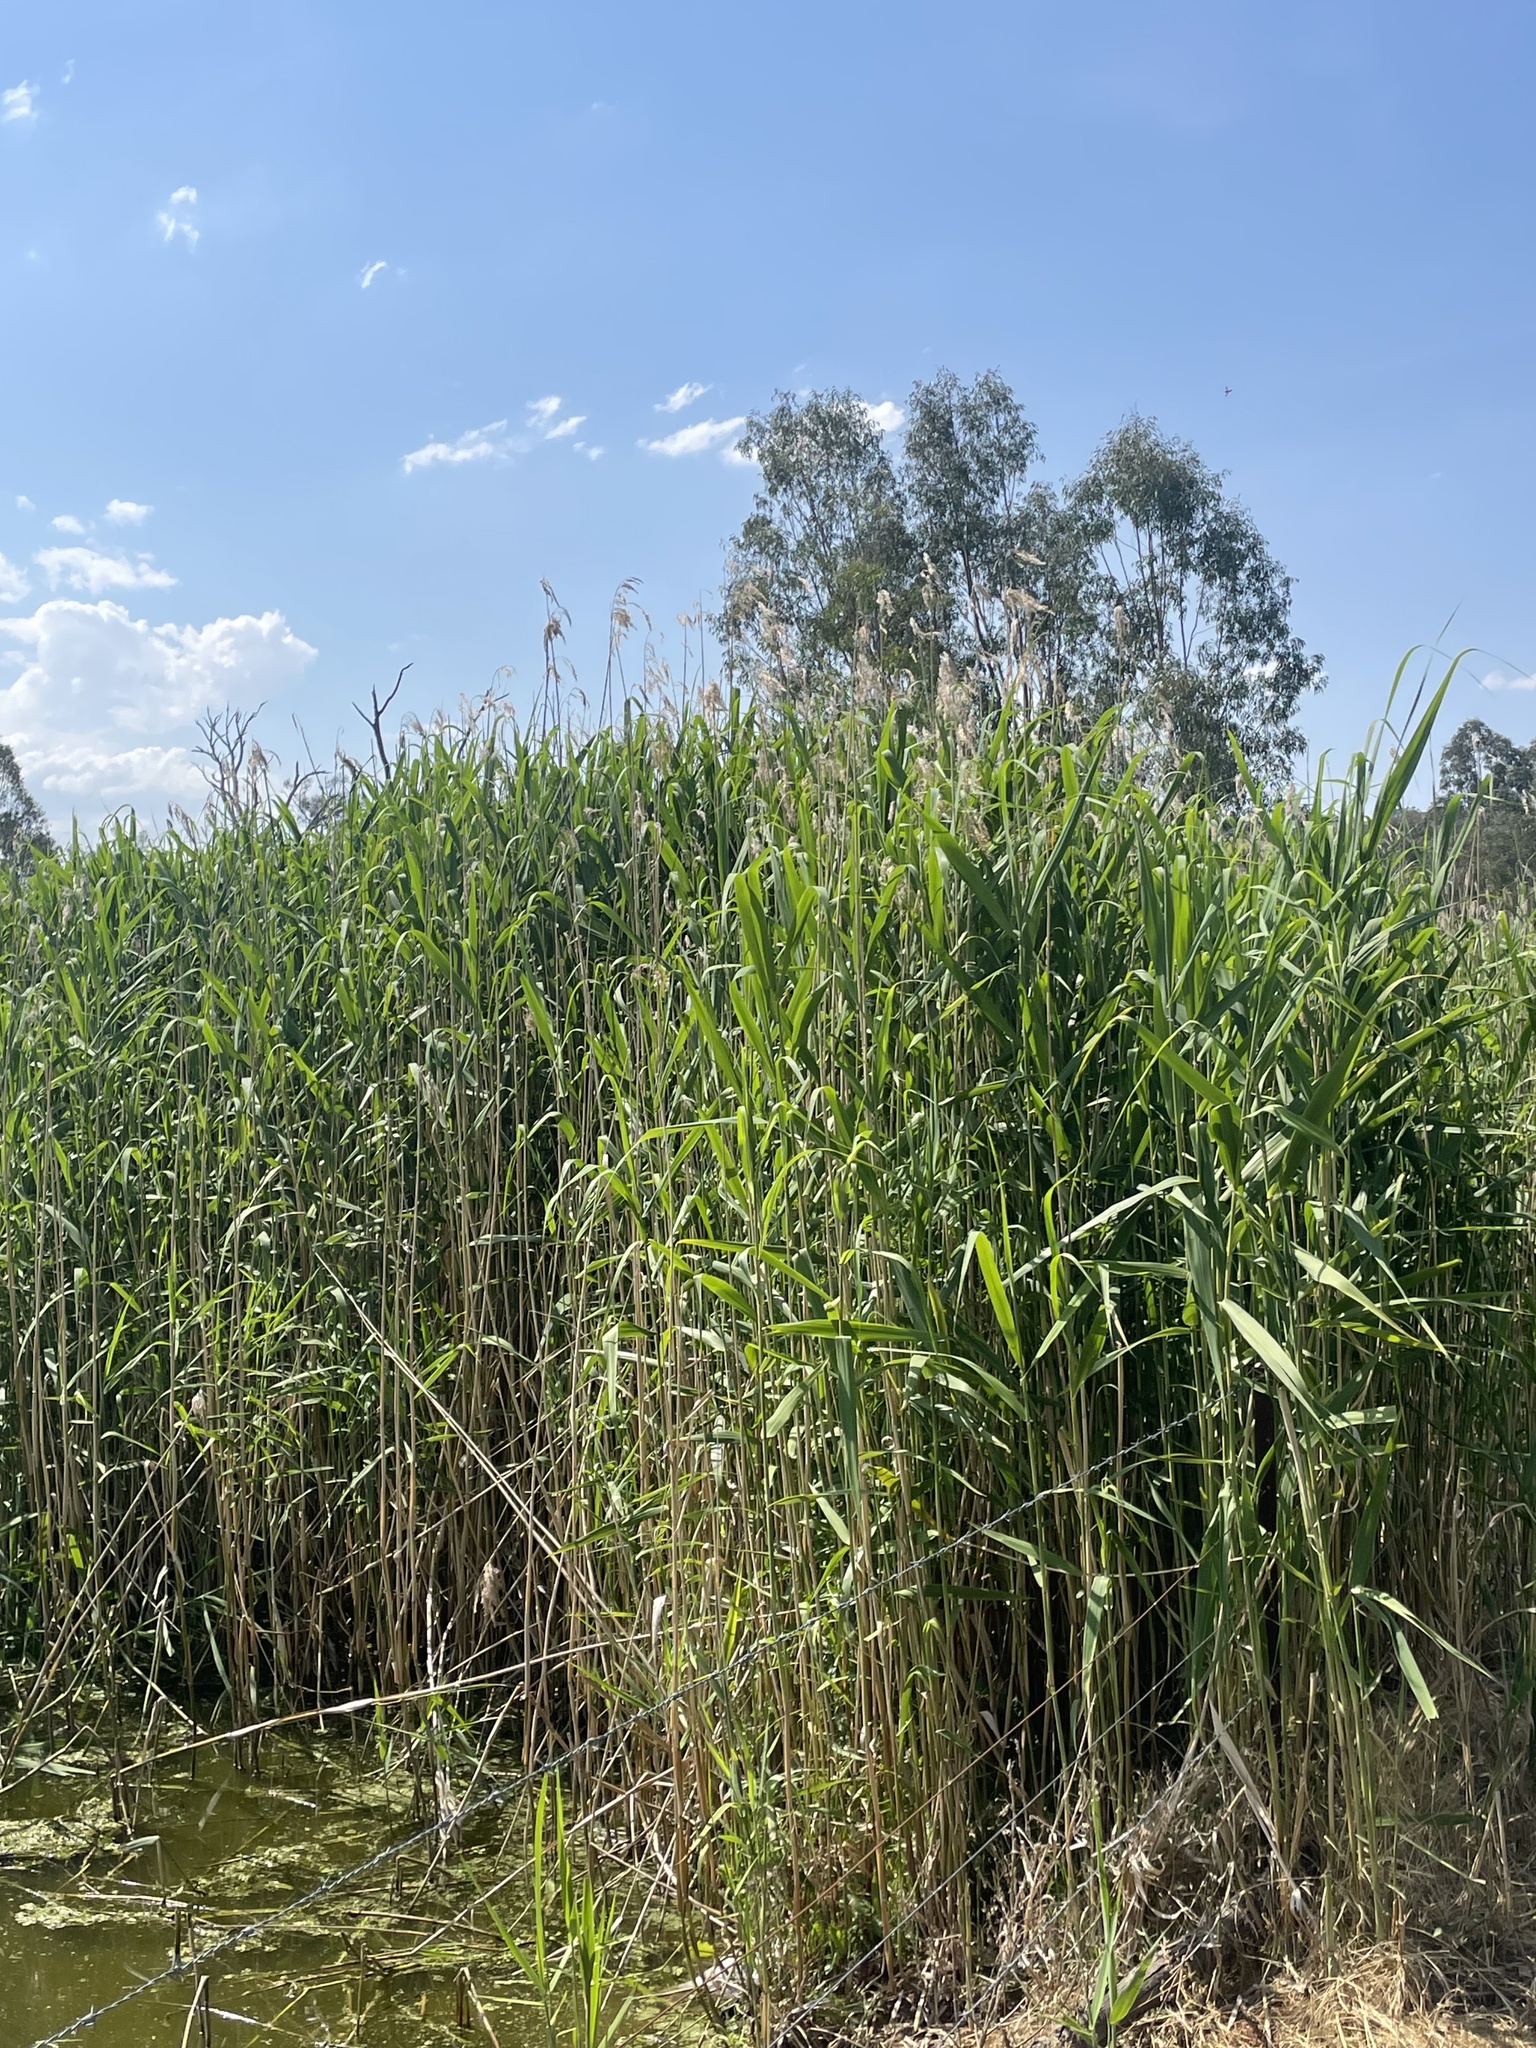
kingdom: Plantae
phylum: Tracheophyta
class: Liliopsida
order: Poales
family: Poaceae
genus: Phragmites
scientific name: Phragmites australis
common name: Common reed
